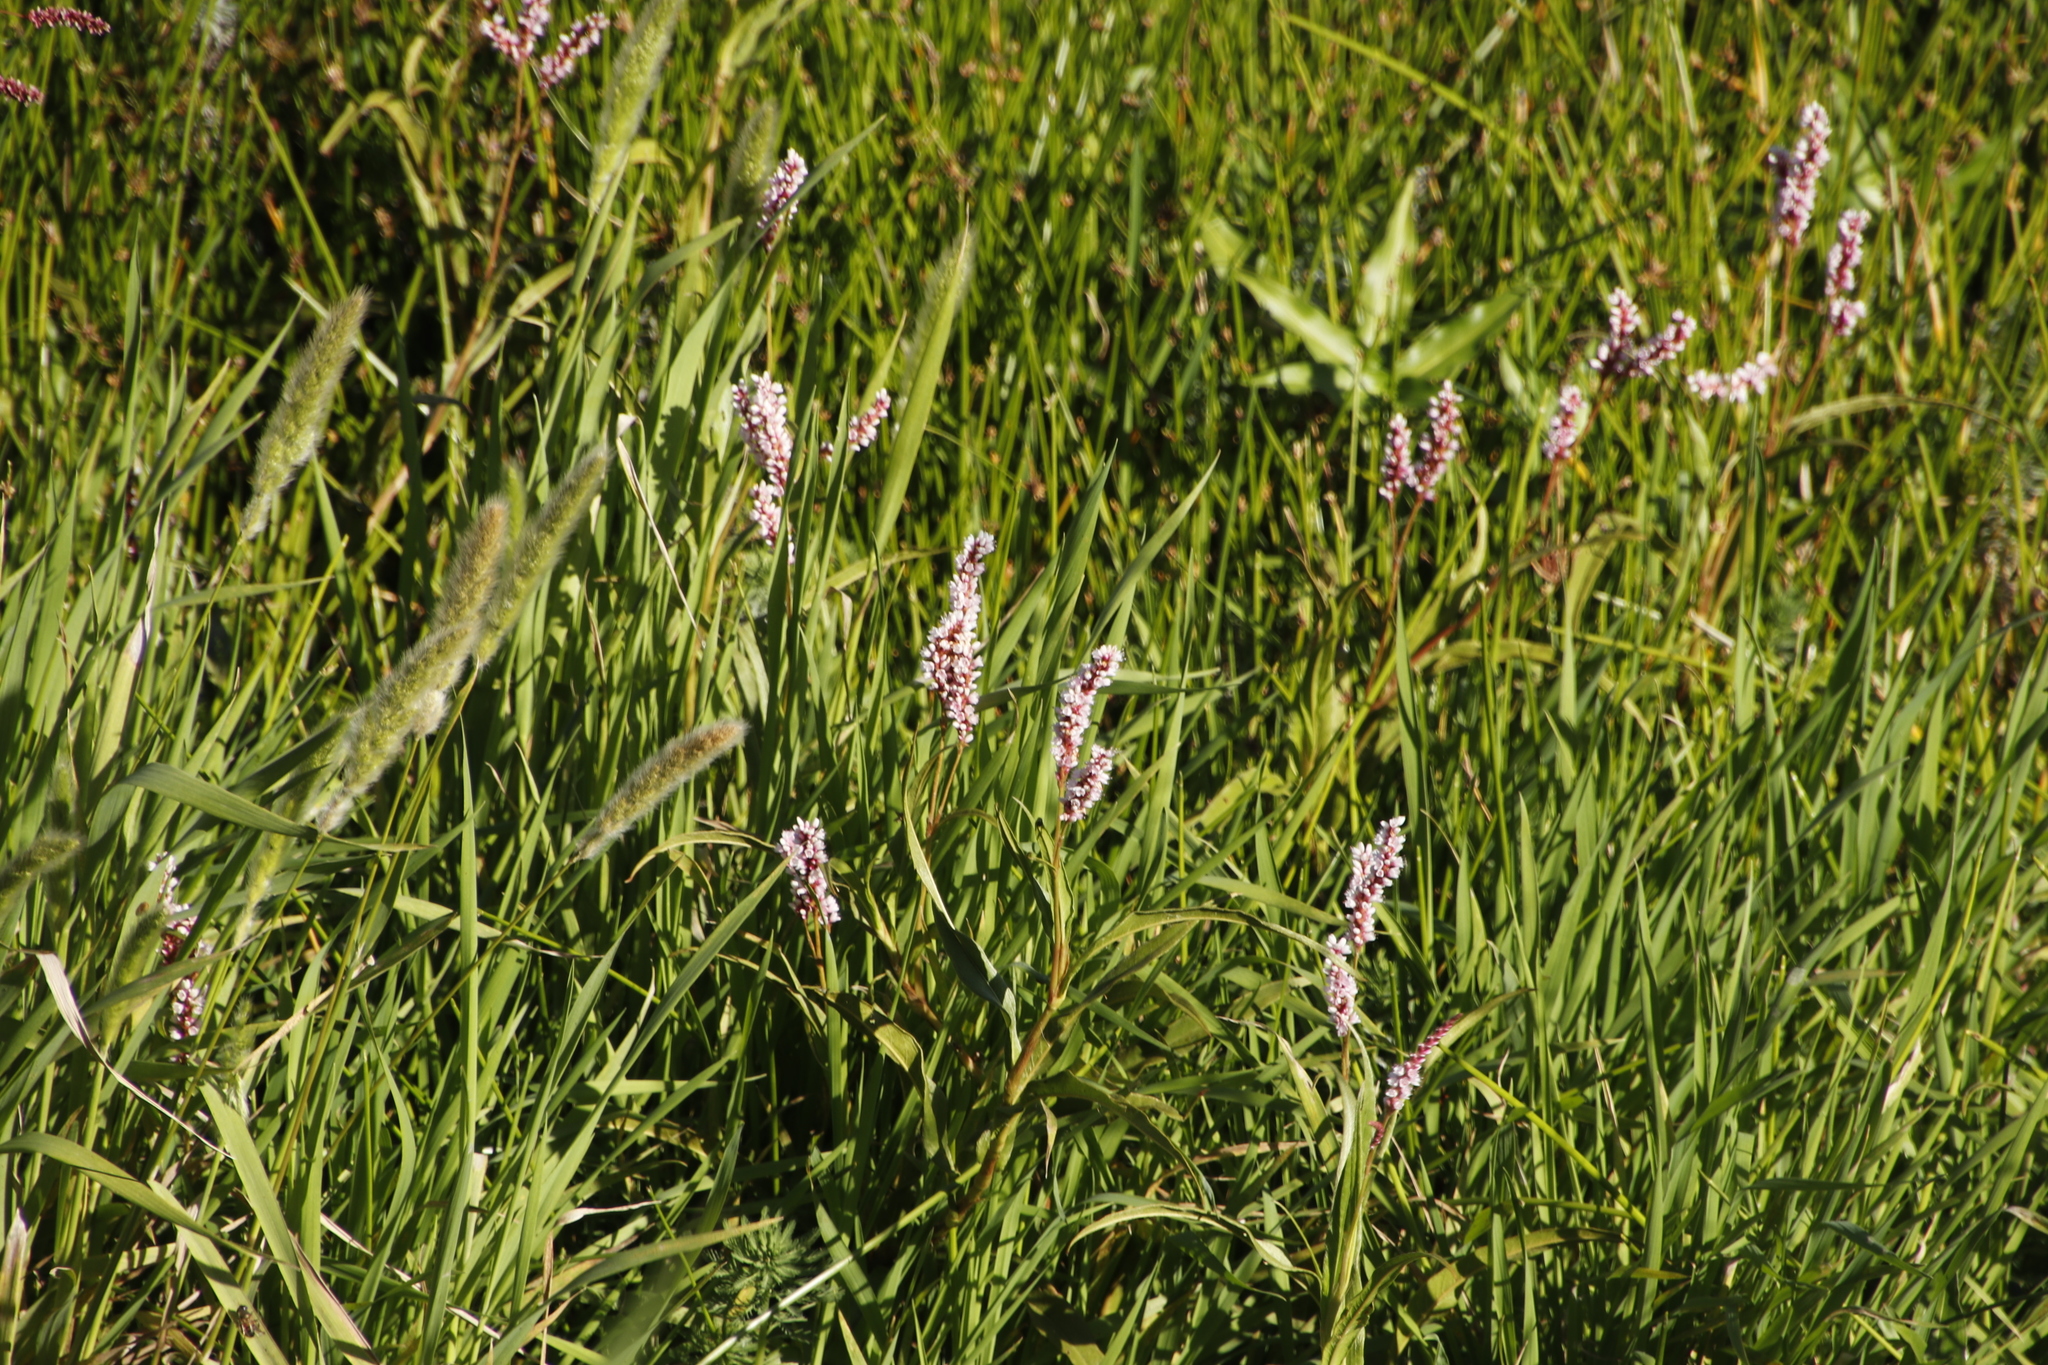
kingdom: Plantae
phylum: Tracheophyta
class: Magnoliopsida
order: Caryophyllales
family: Polygonaceae
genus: Persicaria
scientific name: Persicaria madagascariensis
